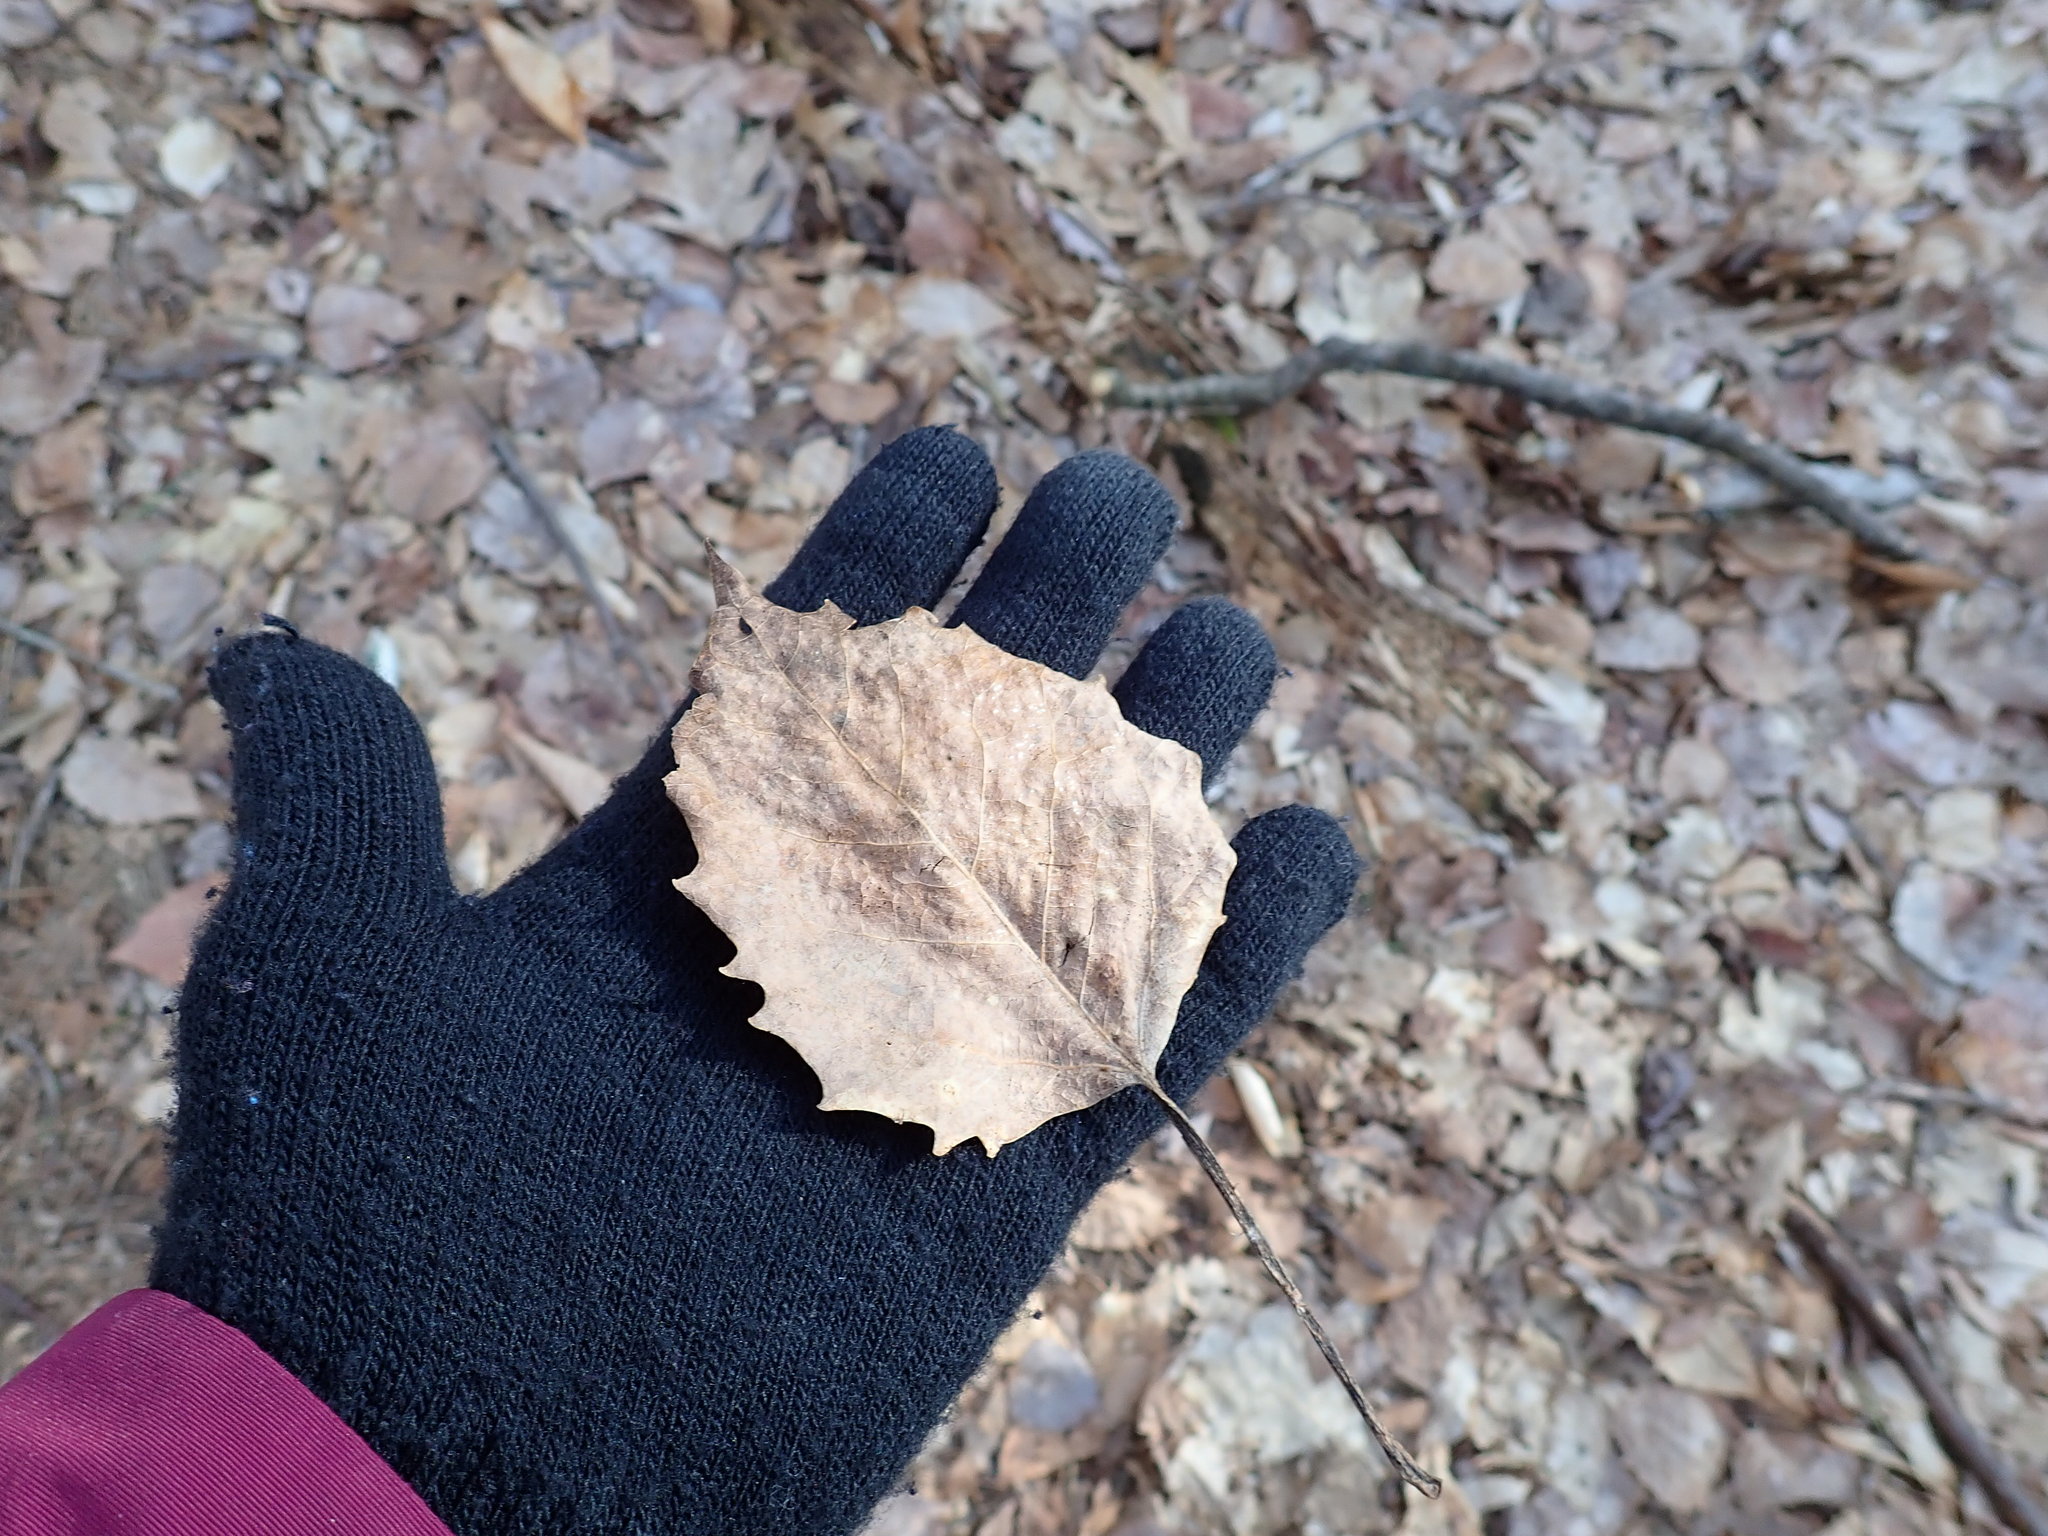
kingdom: Plantae
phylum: Tracheophyta
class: Magnoliopsida
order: Malpighiales
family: Salicaceae
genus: Populus
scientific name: Populus grandidentata
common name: Bigtooth aspen
